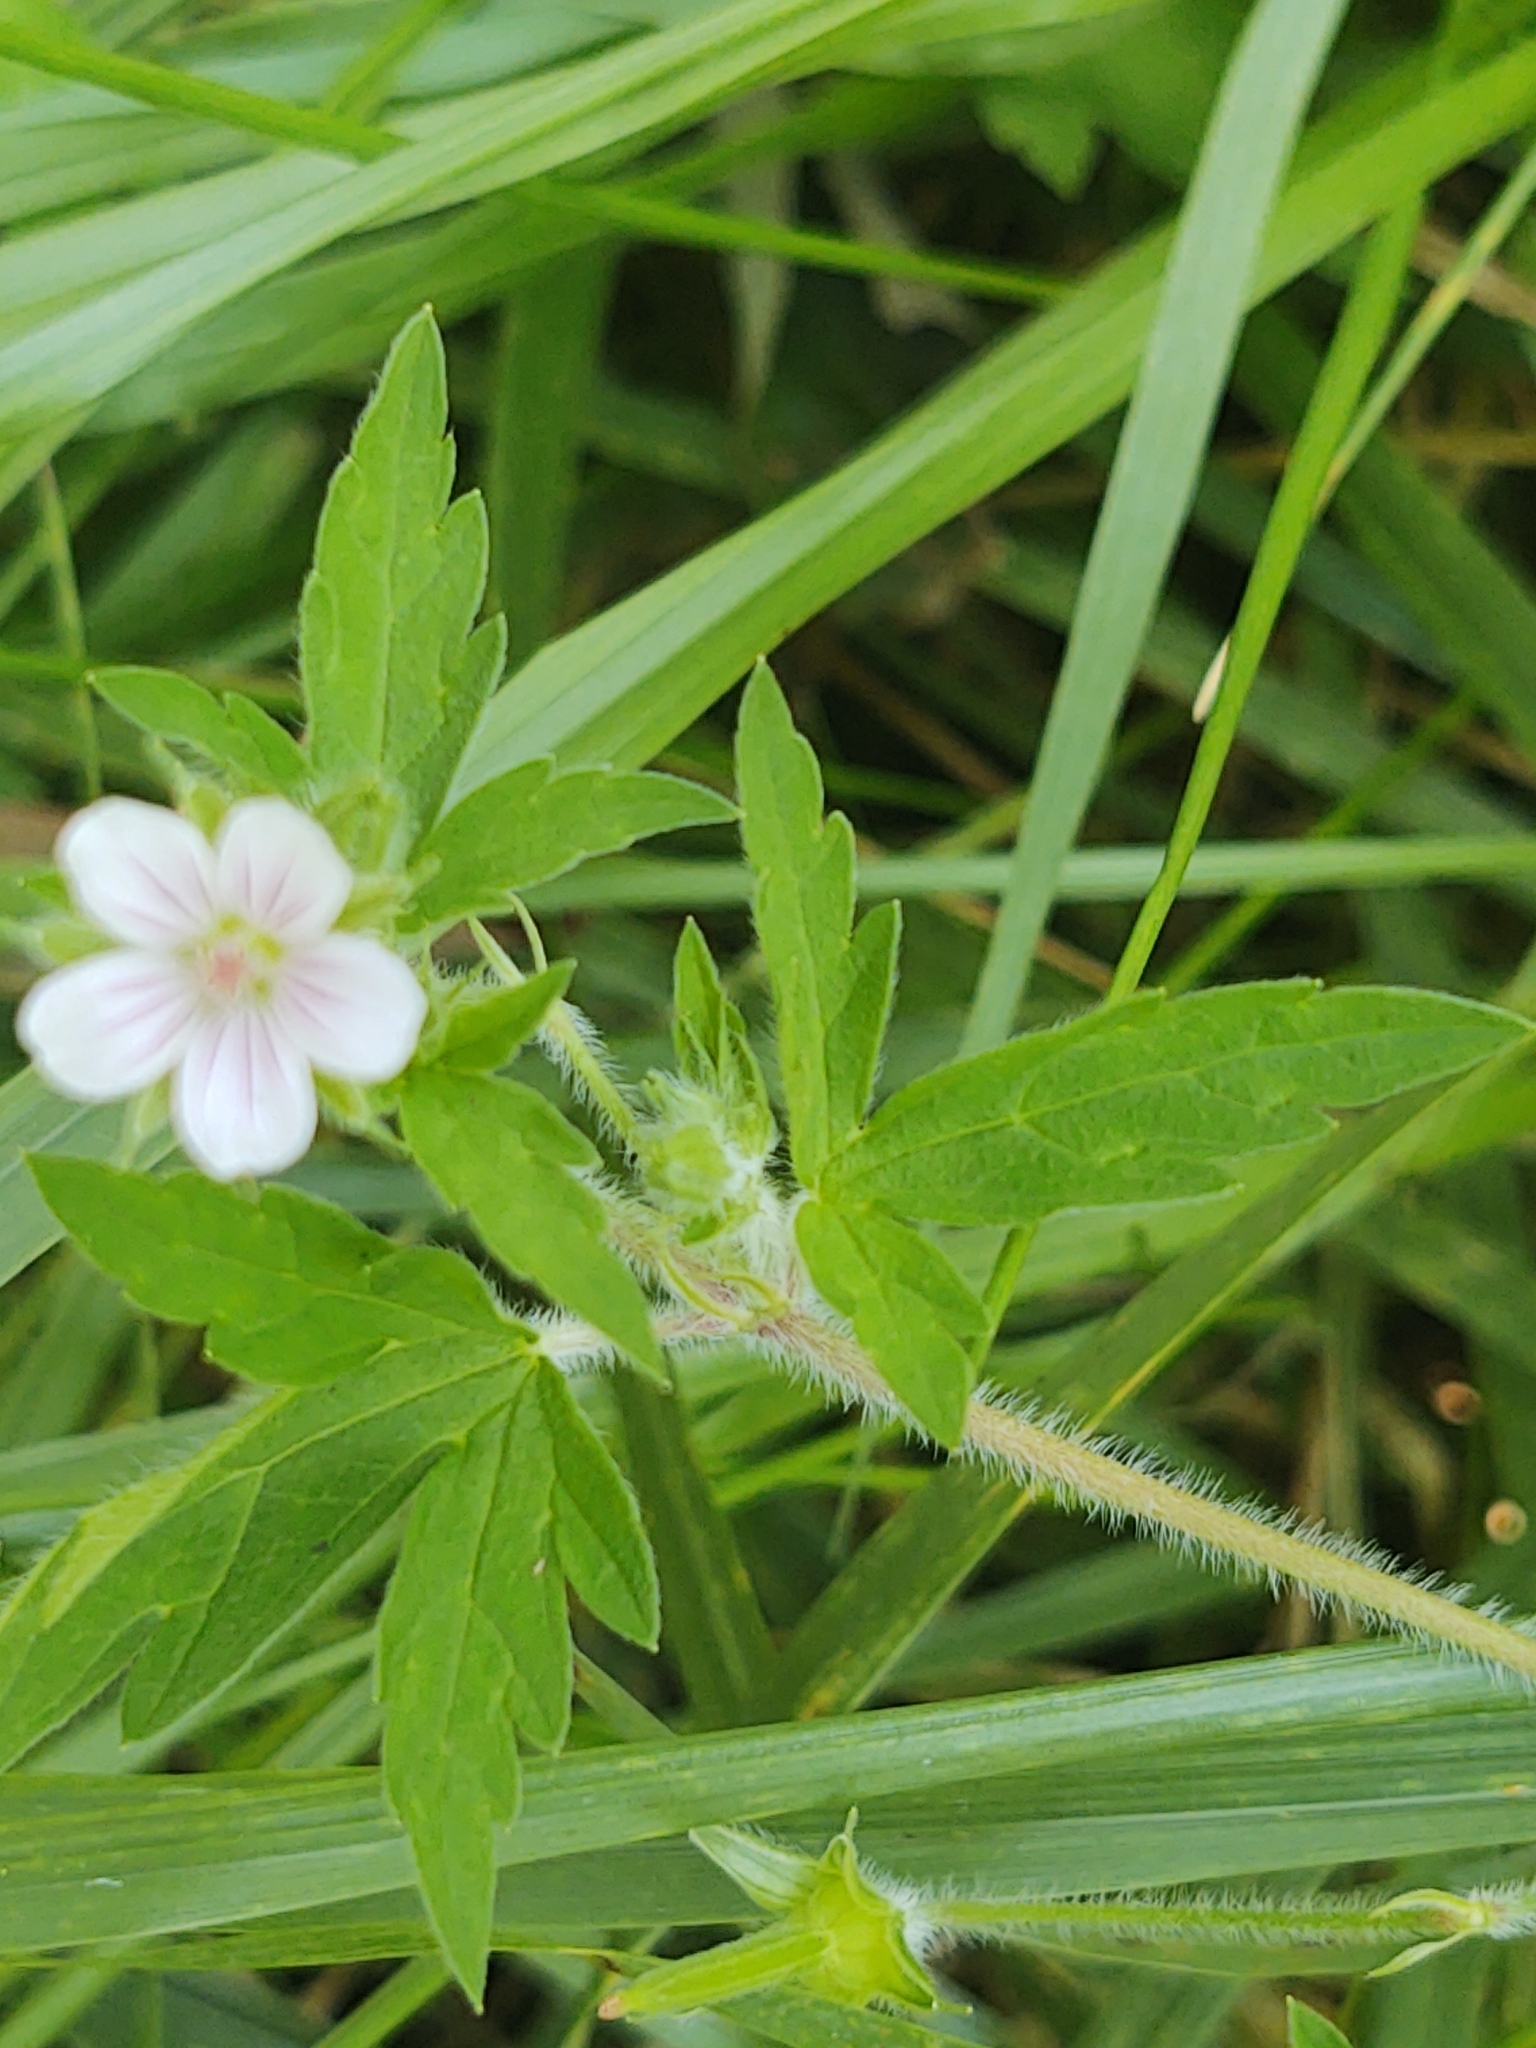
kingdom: Plantae
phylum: Tracheophyta
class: Magnoliopsida
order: Geraniales
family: Geraniaceae
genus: Geranium
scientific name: Geranium sibiricum
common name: Siberian crane's-bill
